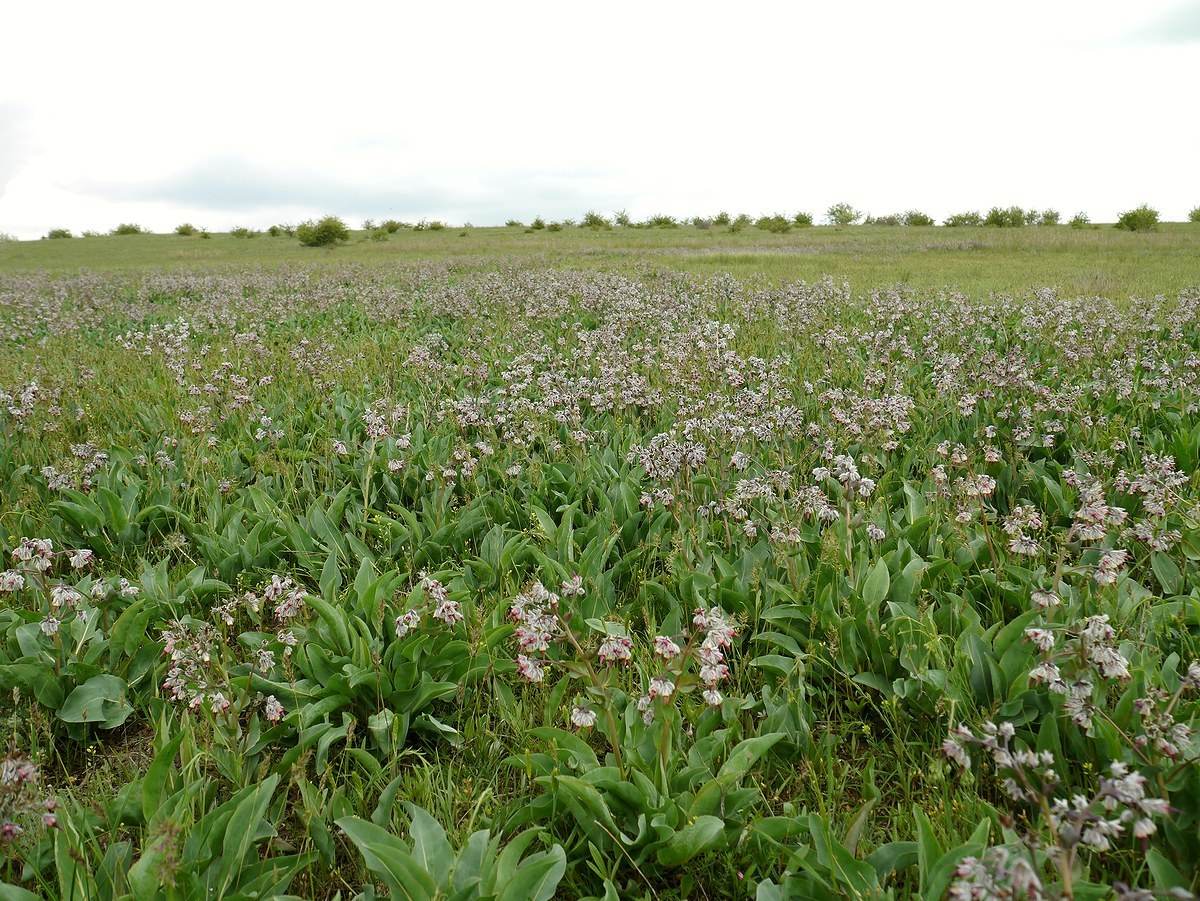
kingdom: Plantae
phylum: Tracheophyta
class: Magnoliopsida
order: Boraginales
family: Boraginaceae
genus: Rindera
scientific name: Rindera tetraspis
